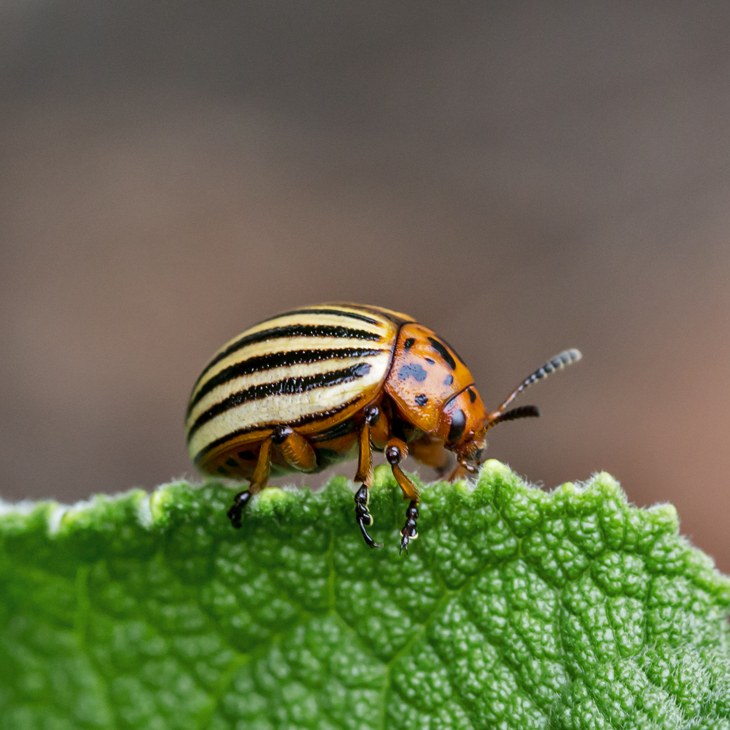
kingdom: Animalia
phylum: Arthropoda
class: Insecta
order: Coleoptera
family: Chrysomelidae
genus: Leptinotarsa
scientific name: Leptinotarsa decemlineata
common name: Colorado potato beetle
